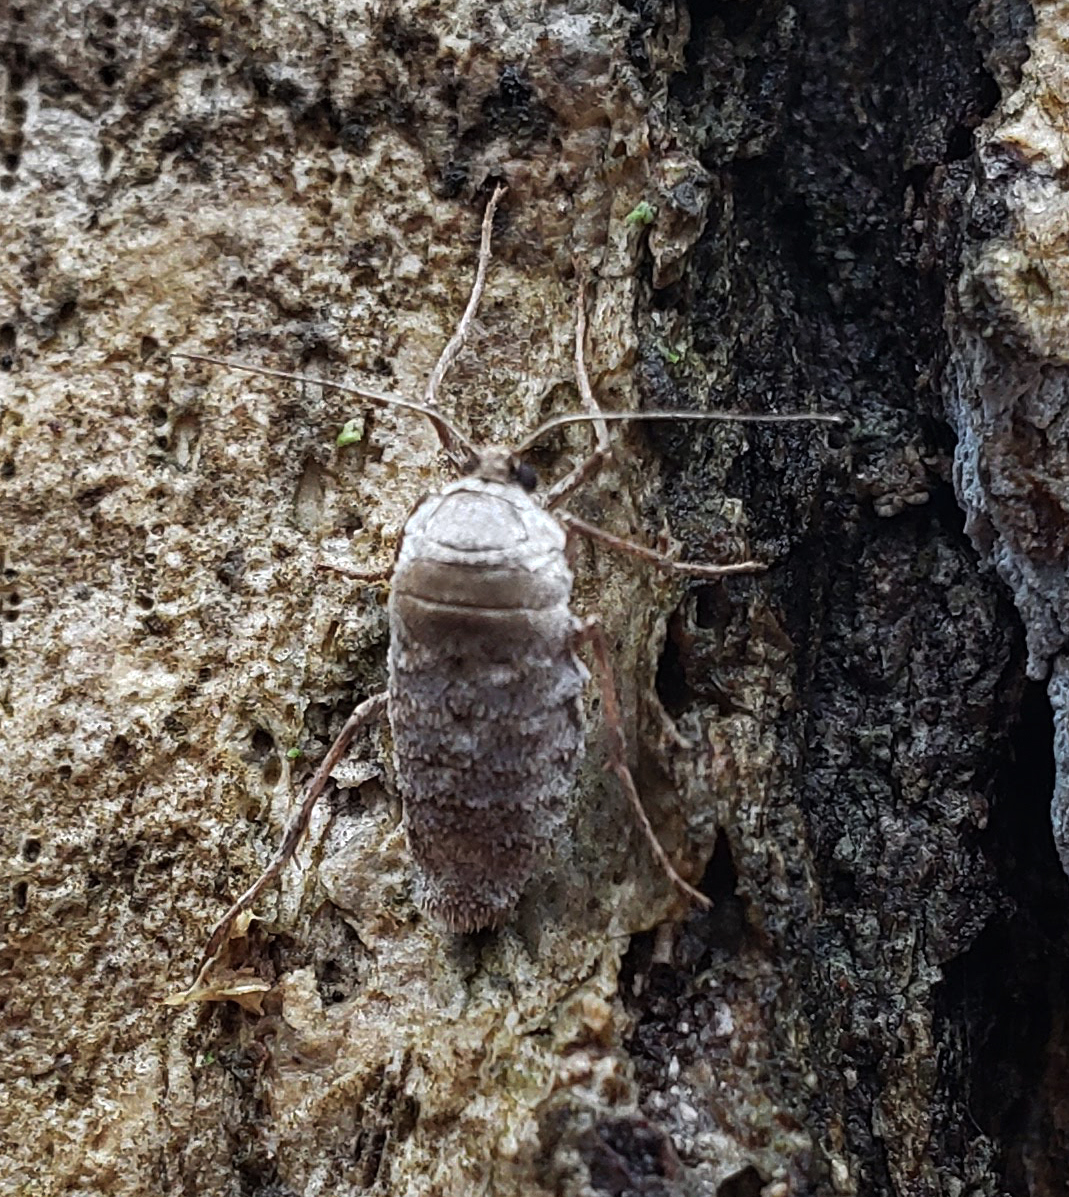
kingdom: Animalia
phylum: Arthropoda
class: Insecta
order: Lepidoptera
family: Geometridae
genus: Alsophila
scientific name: Alsophila pometaria
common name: Fall cankerworm
